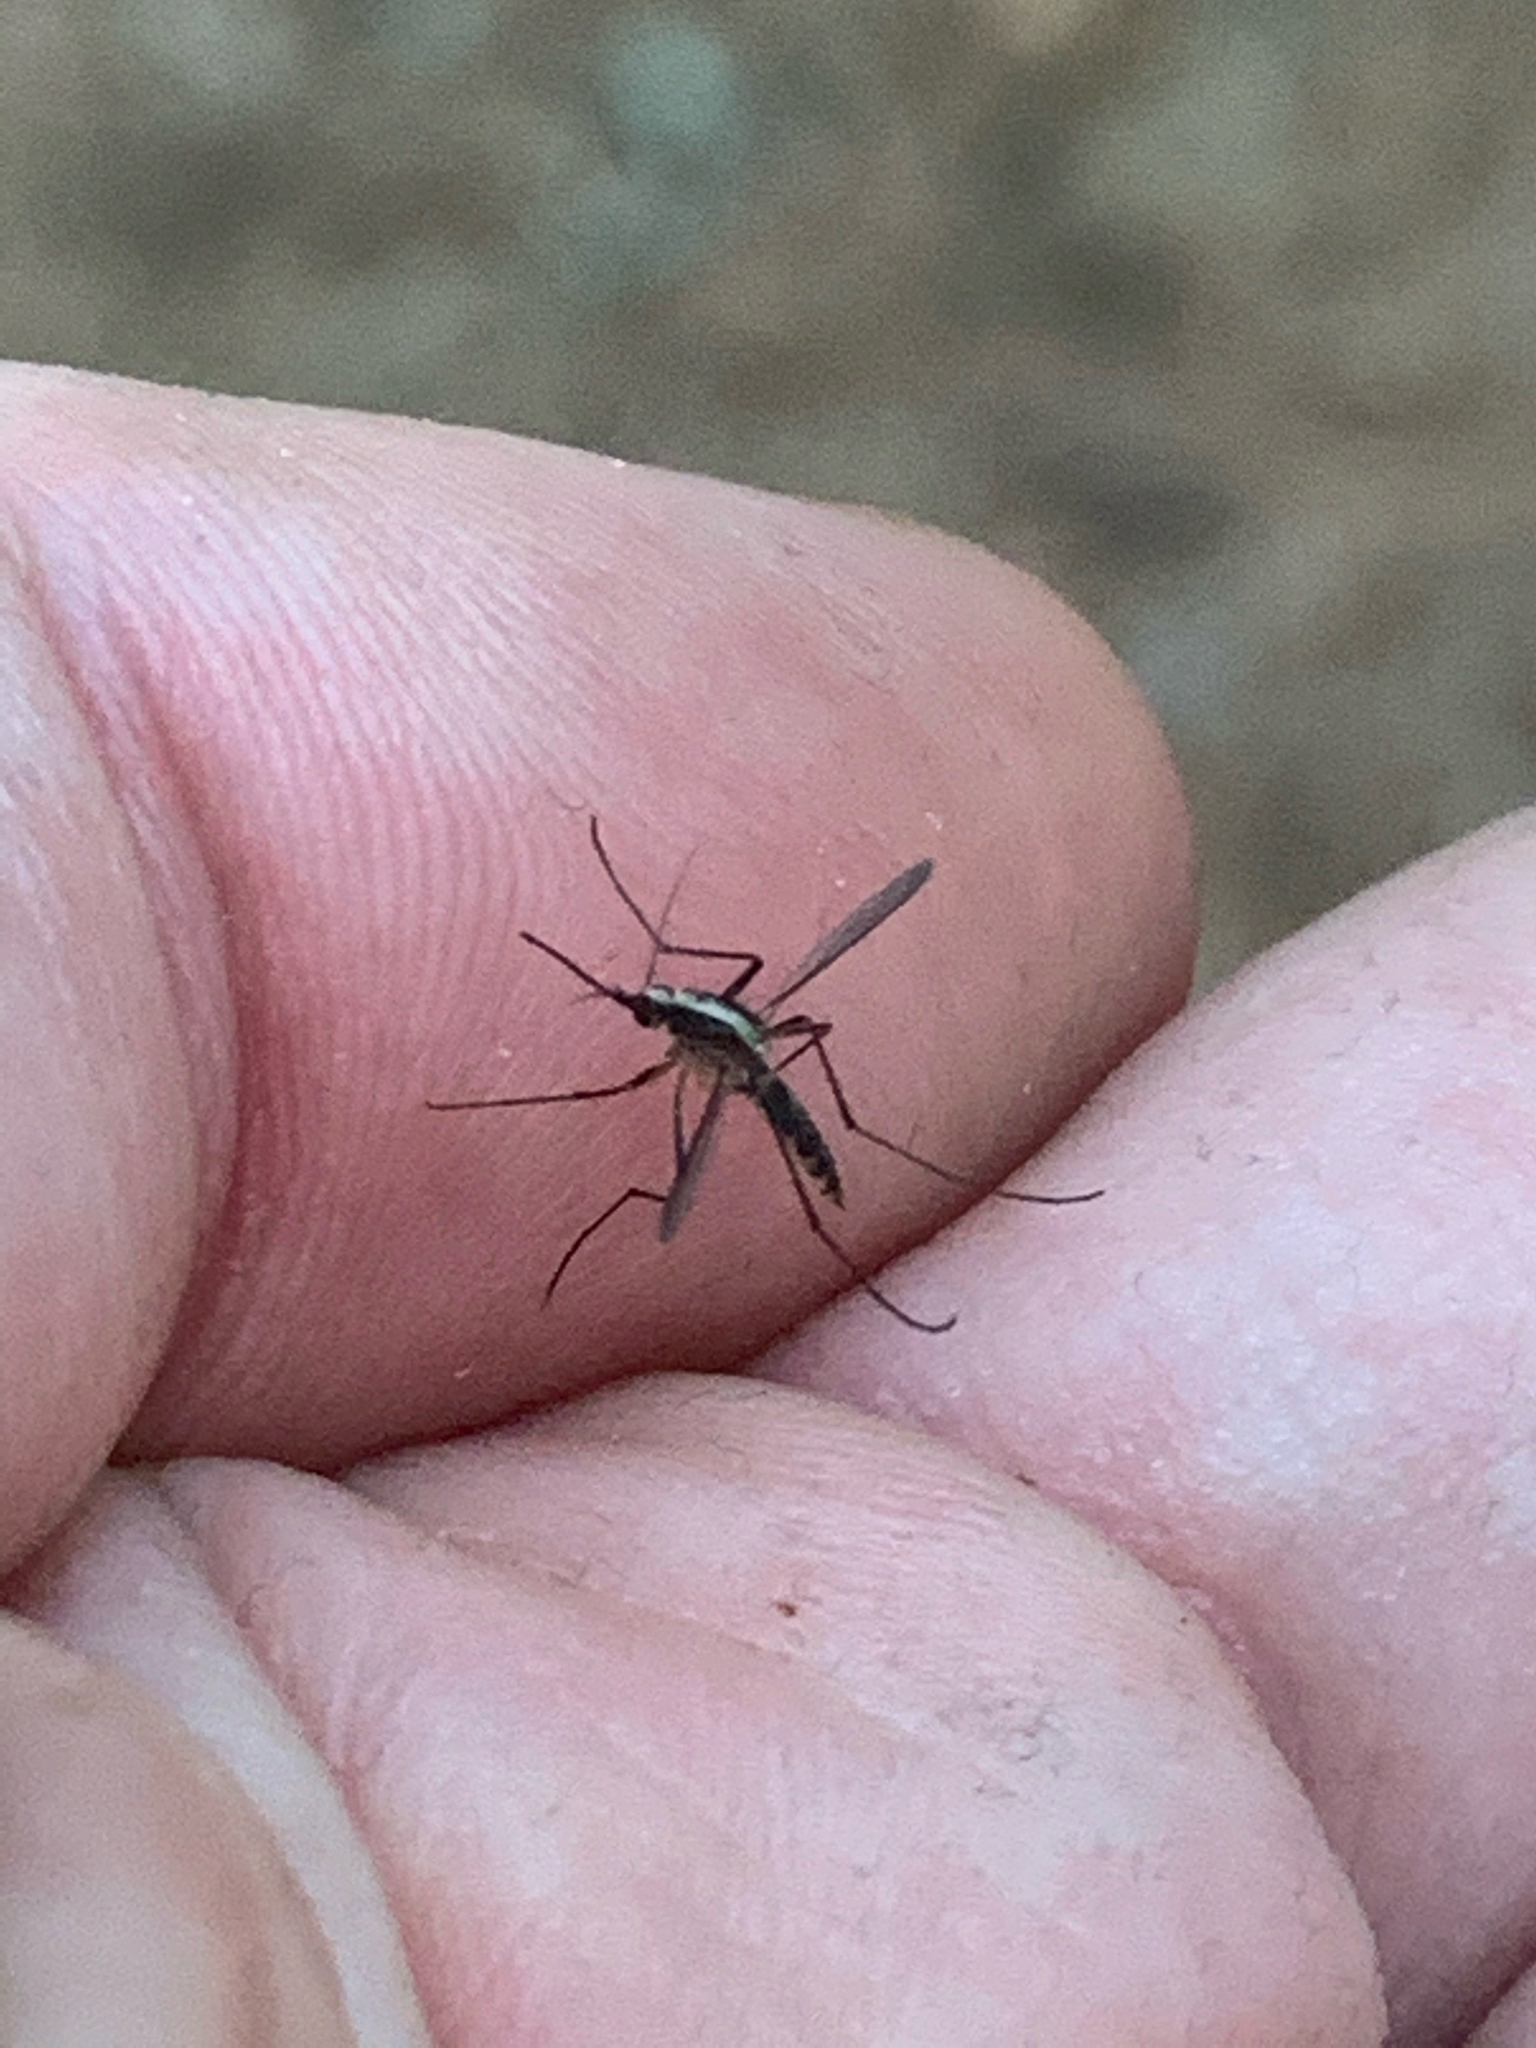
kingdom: Animalia
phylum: Arthropoda
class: Insecta
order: Diptera
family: Culicidae
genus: Aedes
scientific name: Aedes atlanticus
